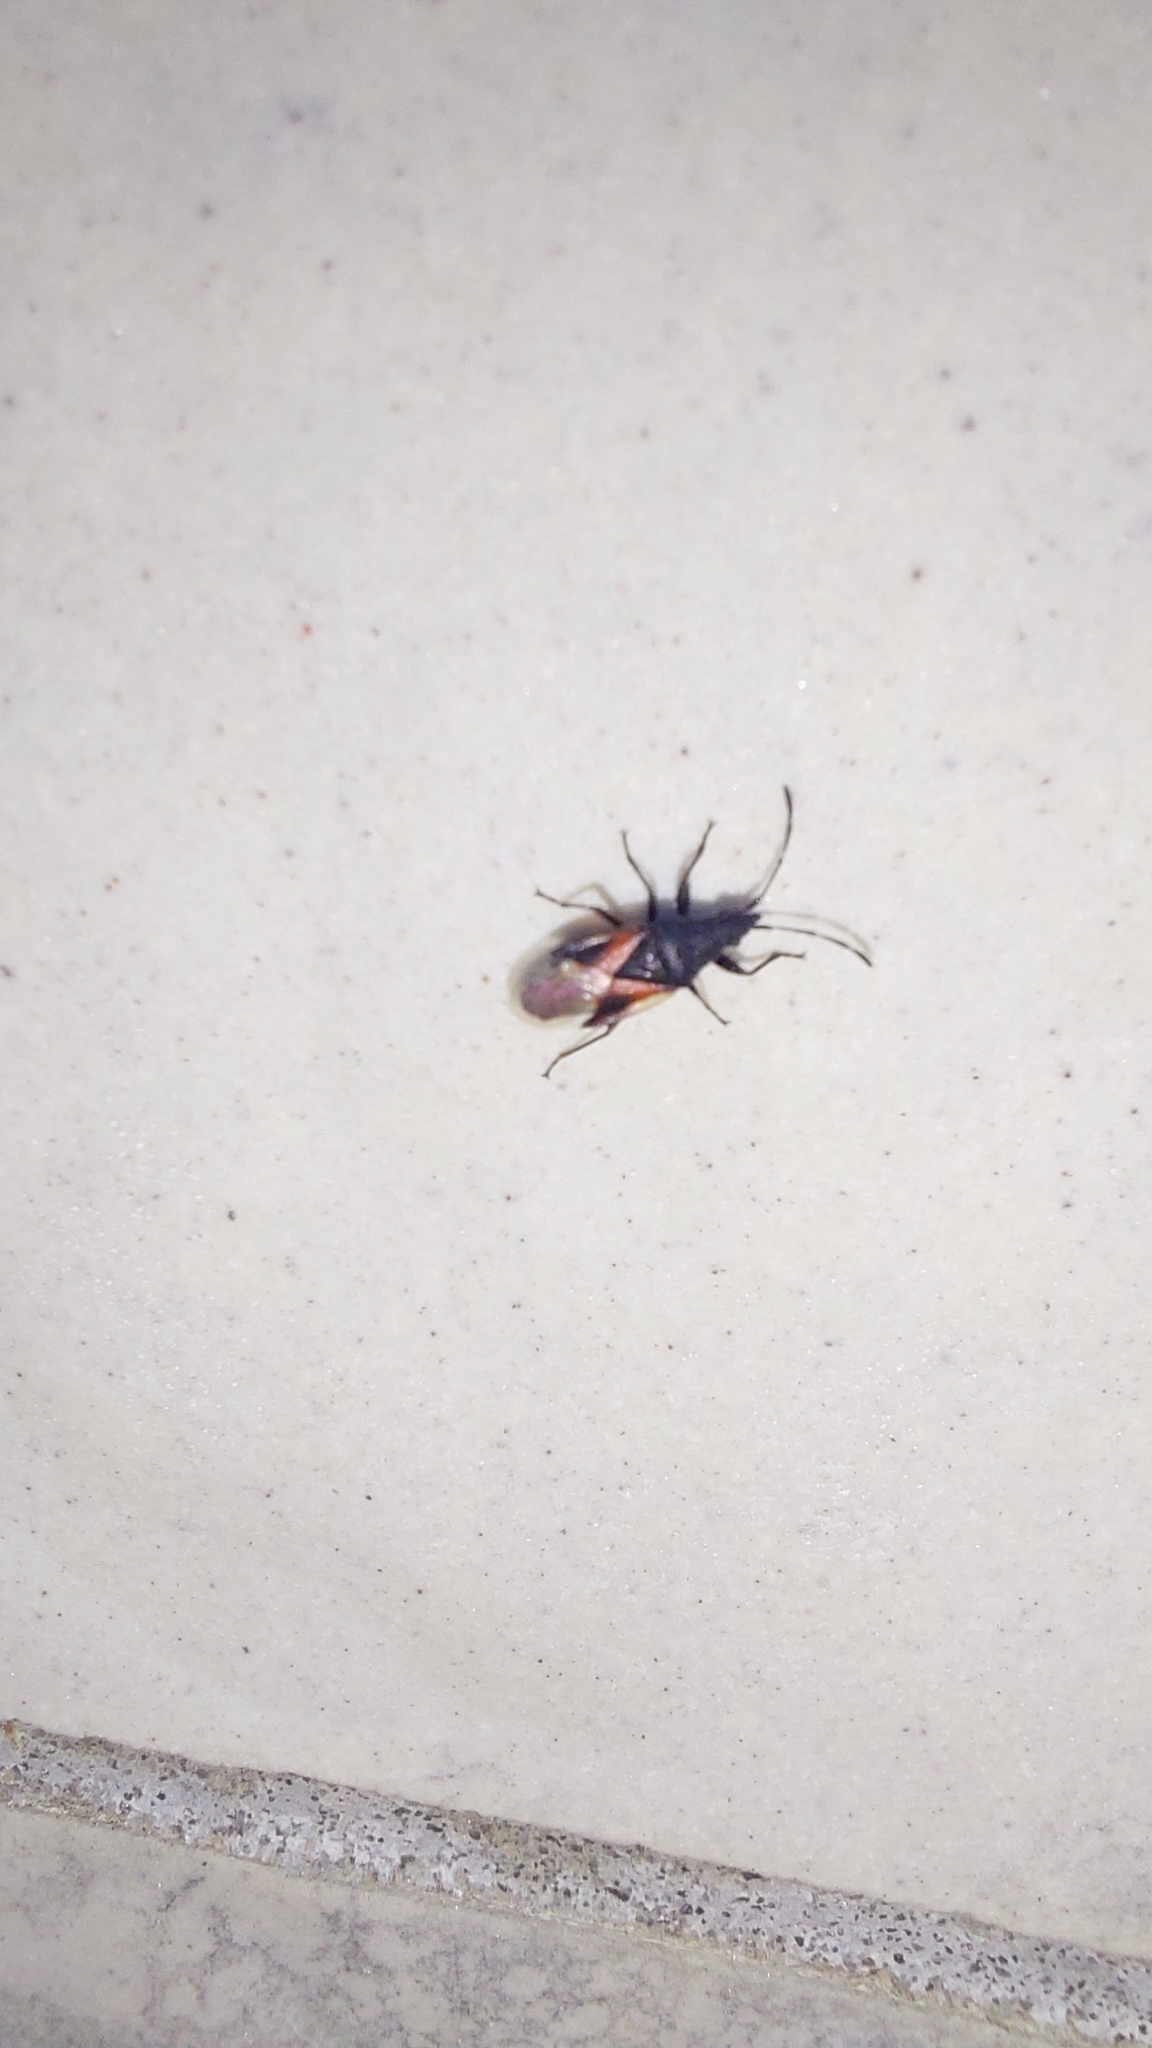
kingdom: Animalia
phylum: Arthropoda
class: Insecta
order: Hemiptera
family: Oxycarenidae
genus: Oxycarenus
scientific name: Oxycarenus lavaterae
